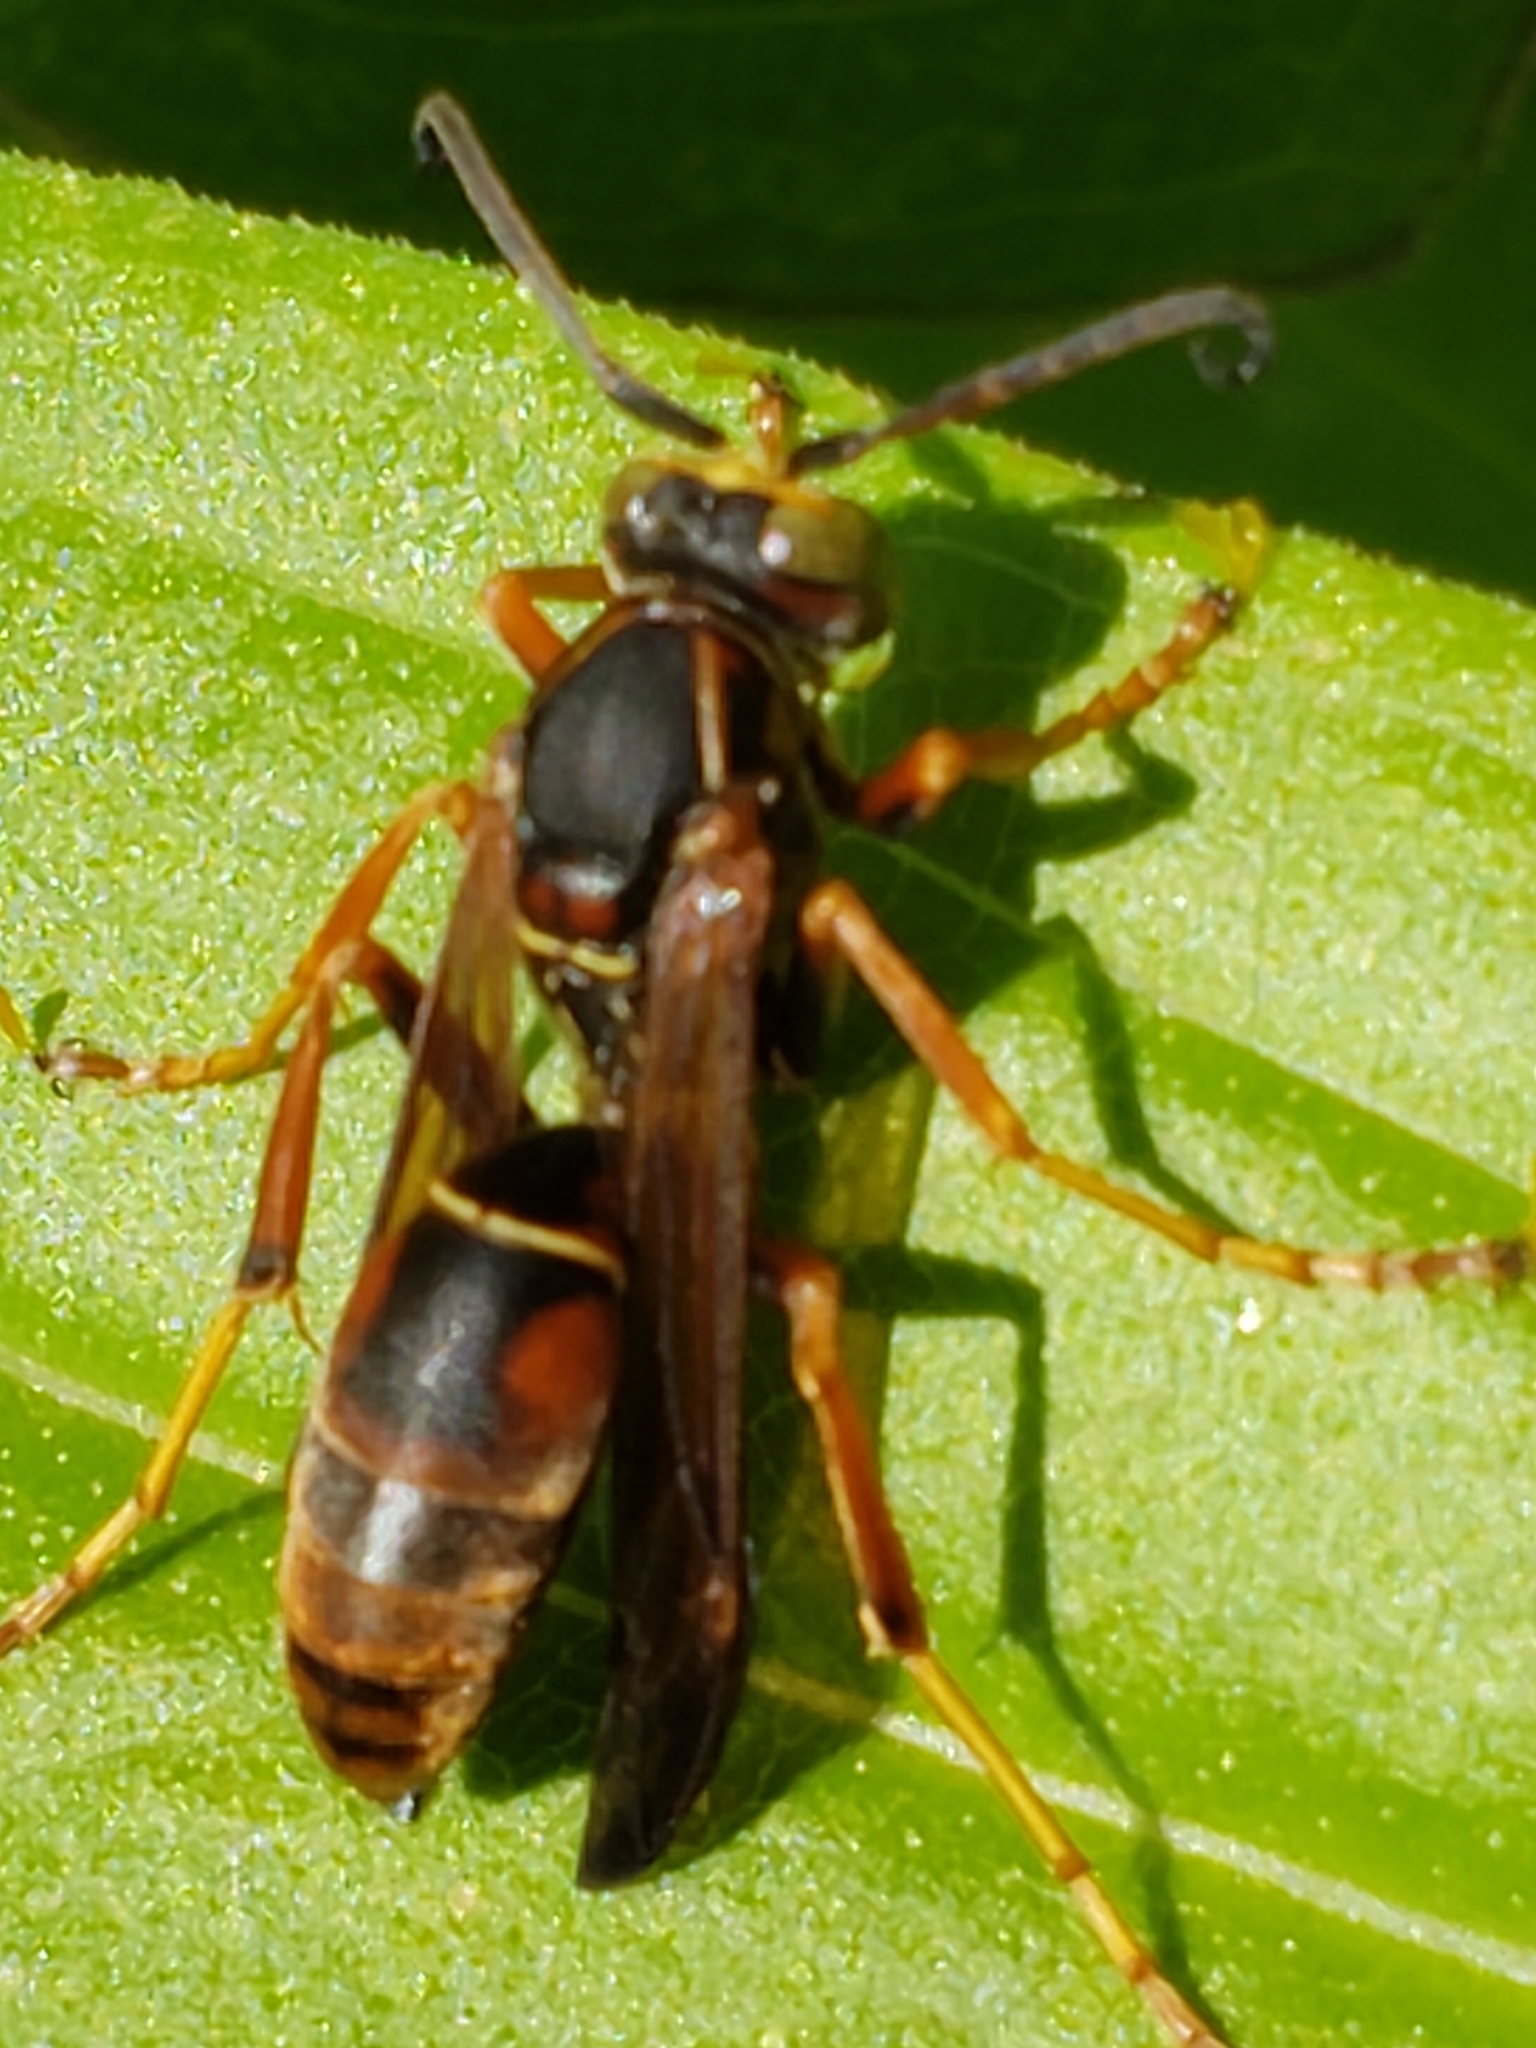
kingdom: Animalia
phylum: Arthropoda
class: Insecta
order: Hymenoptera
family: Eumenidae
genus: Polistes
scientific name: Polistes fuscatus
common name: Dark paper wasp
